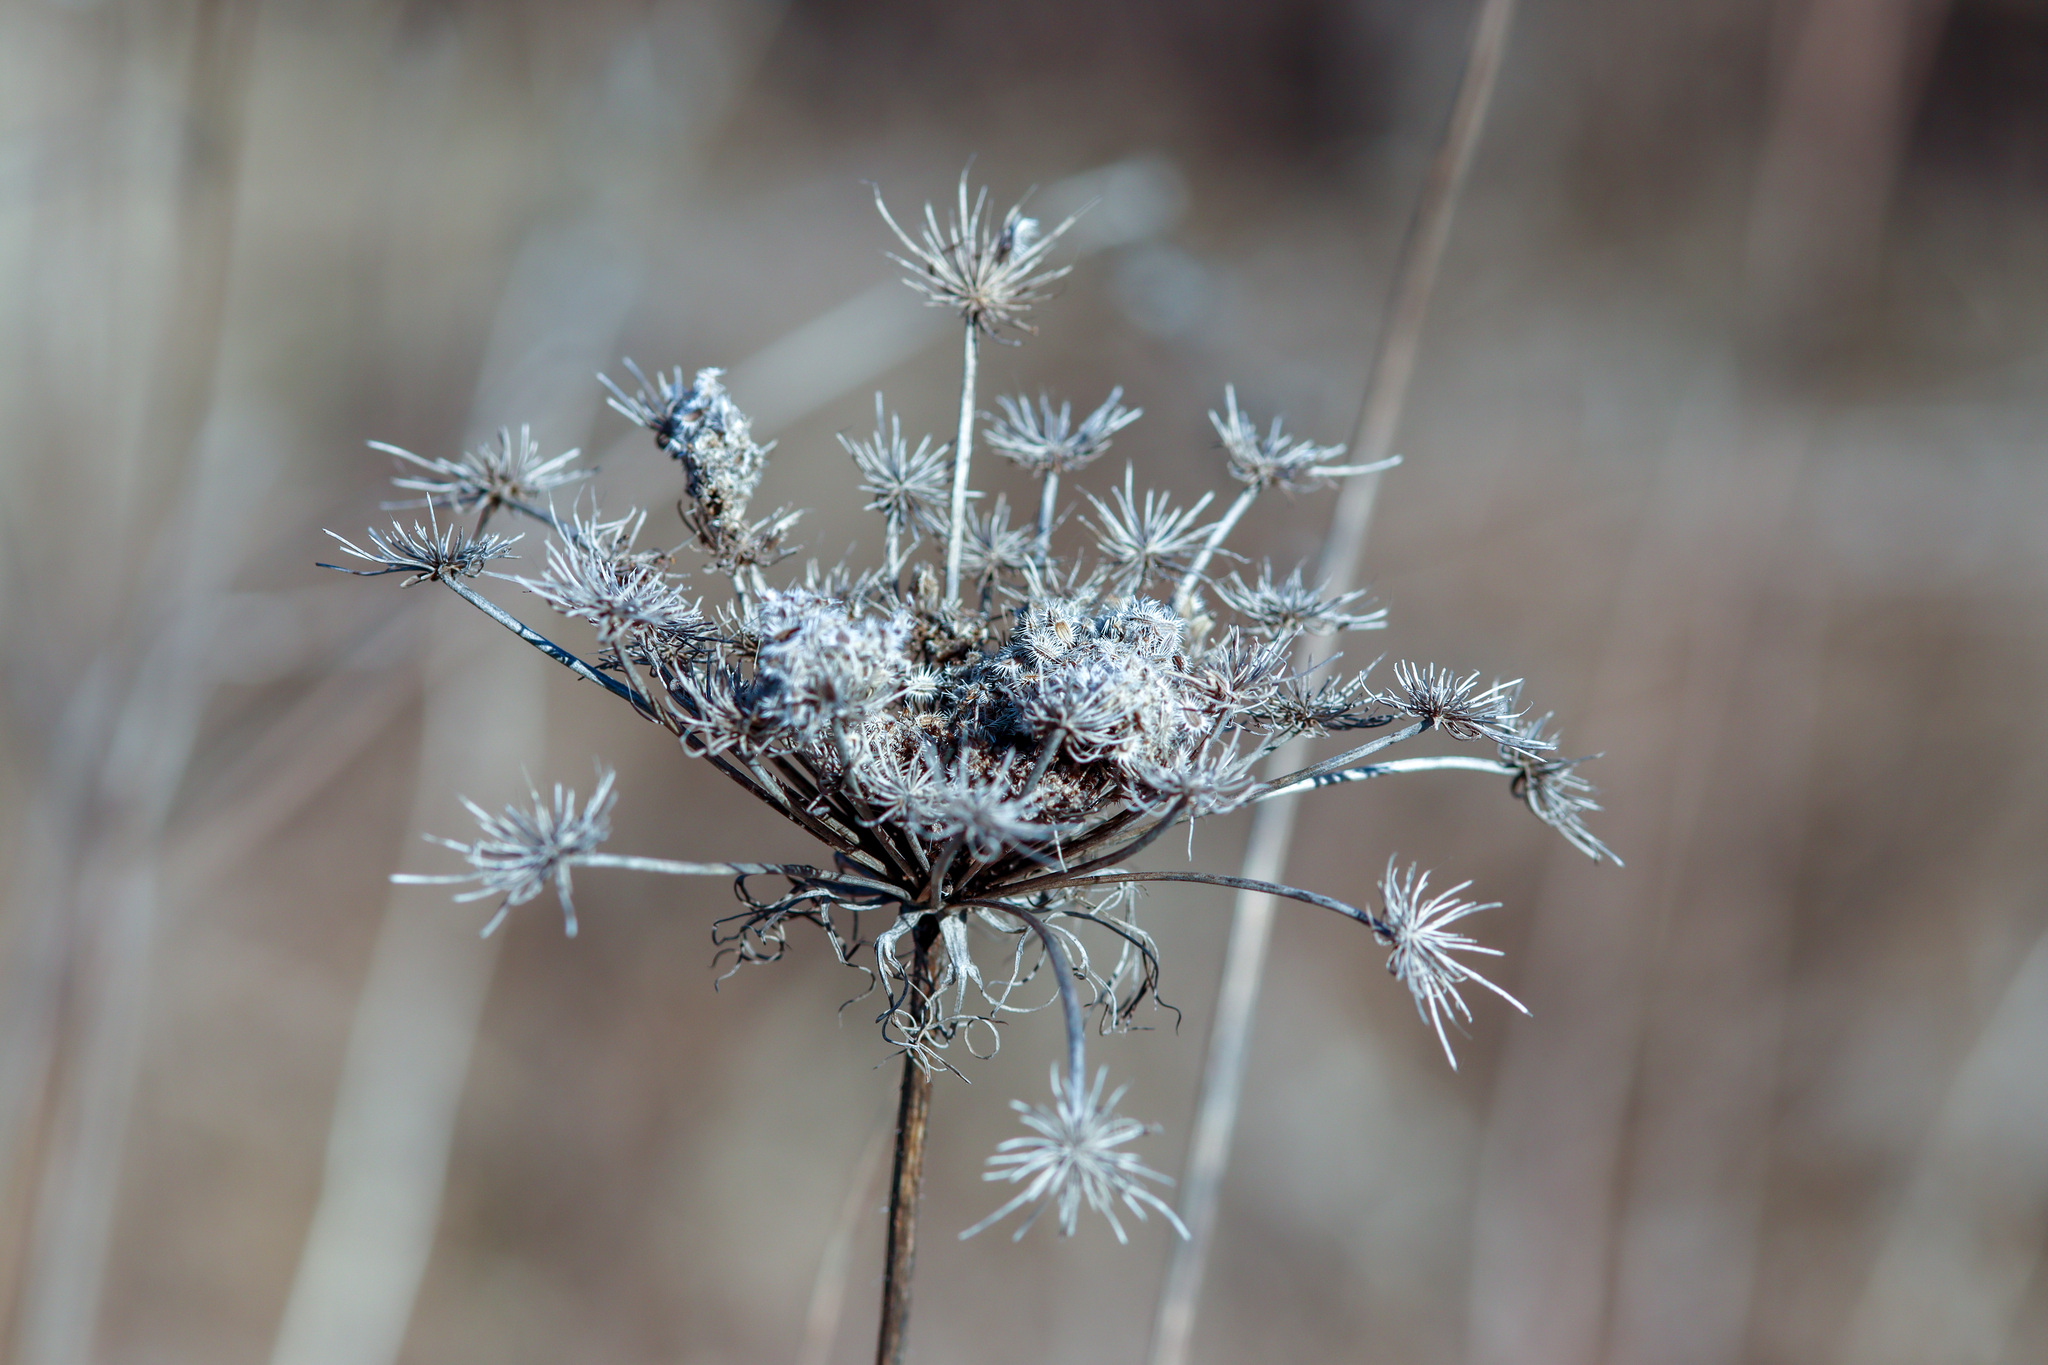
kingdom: Plantae
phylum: Tracheophyta
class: Magnoliopsida
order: Apiales
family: Apiaceae
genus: Daucus
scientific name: Daucus carota
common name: Wild carrot
